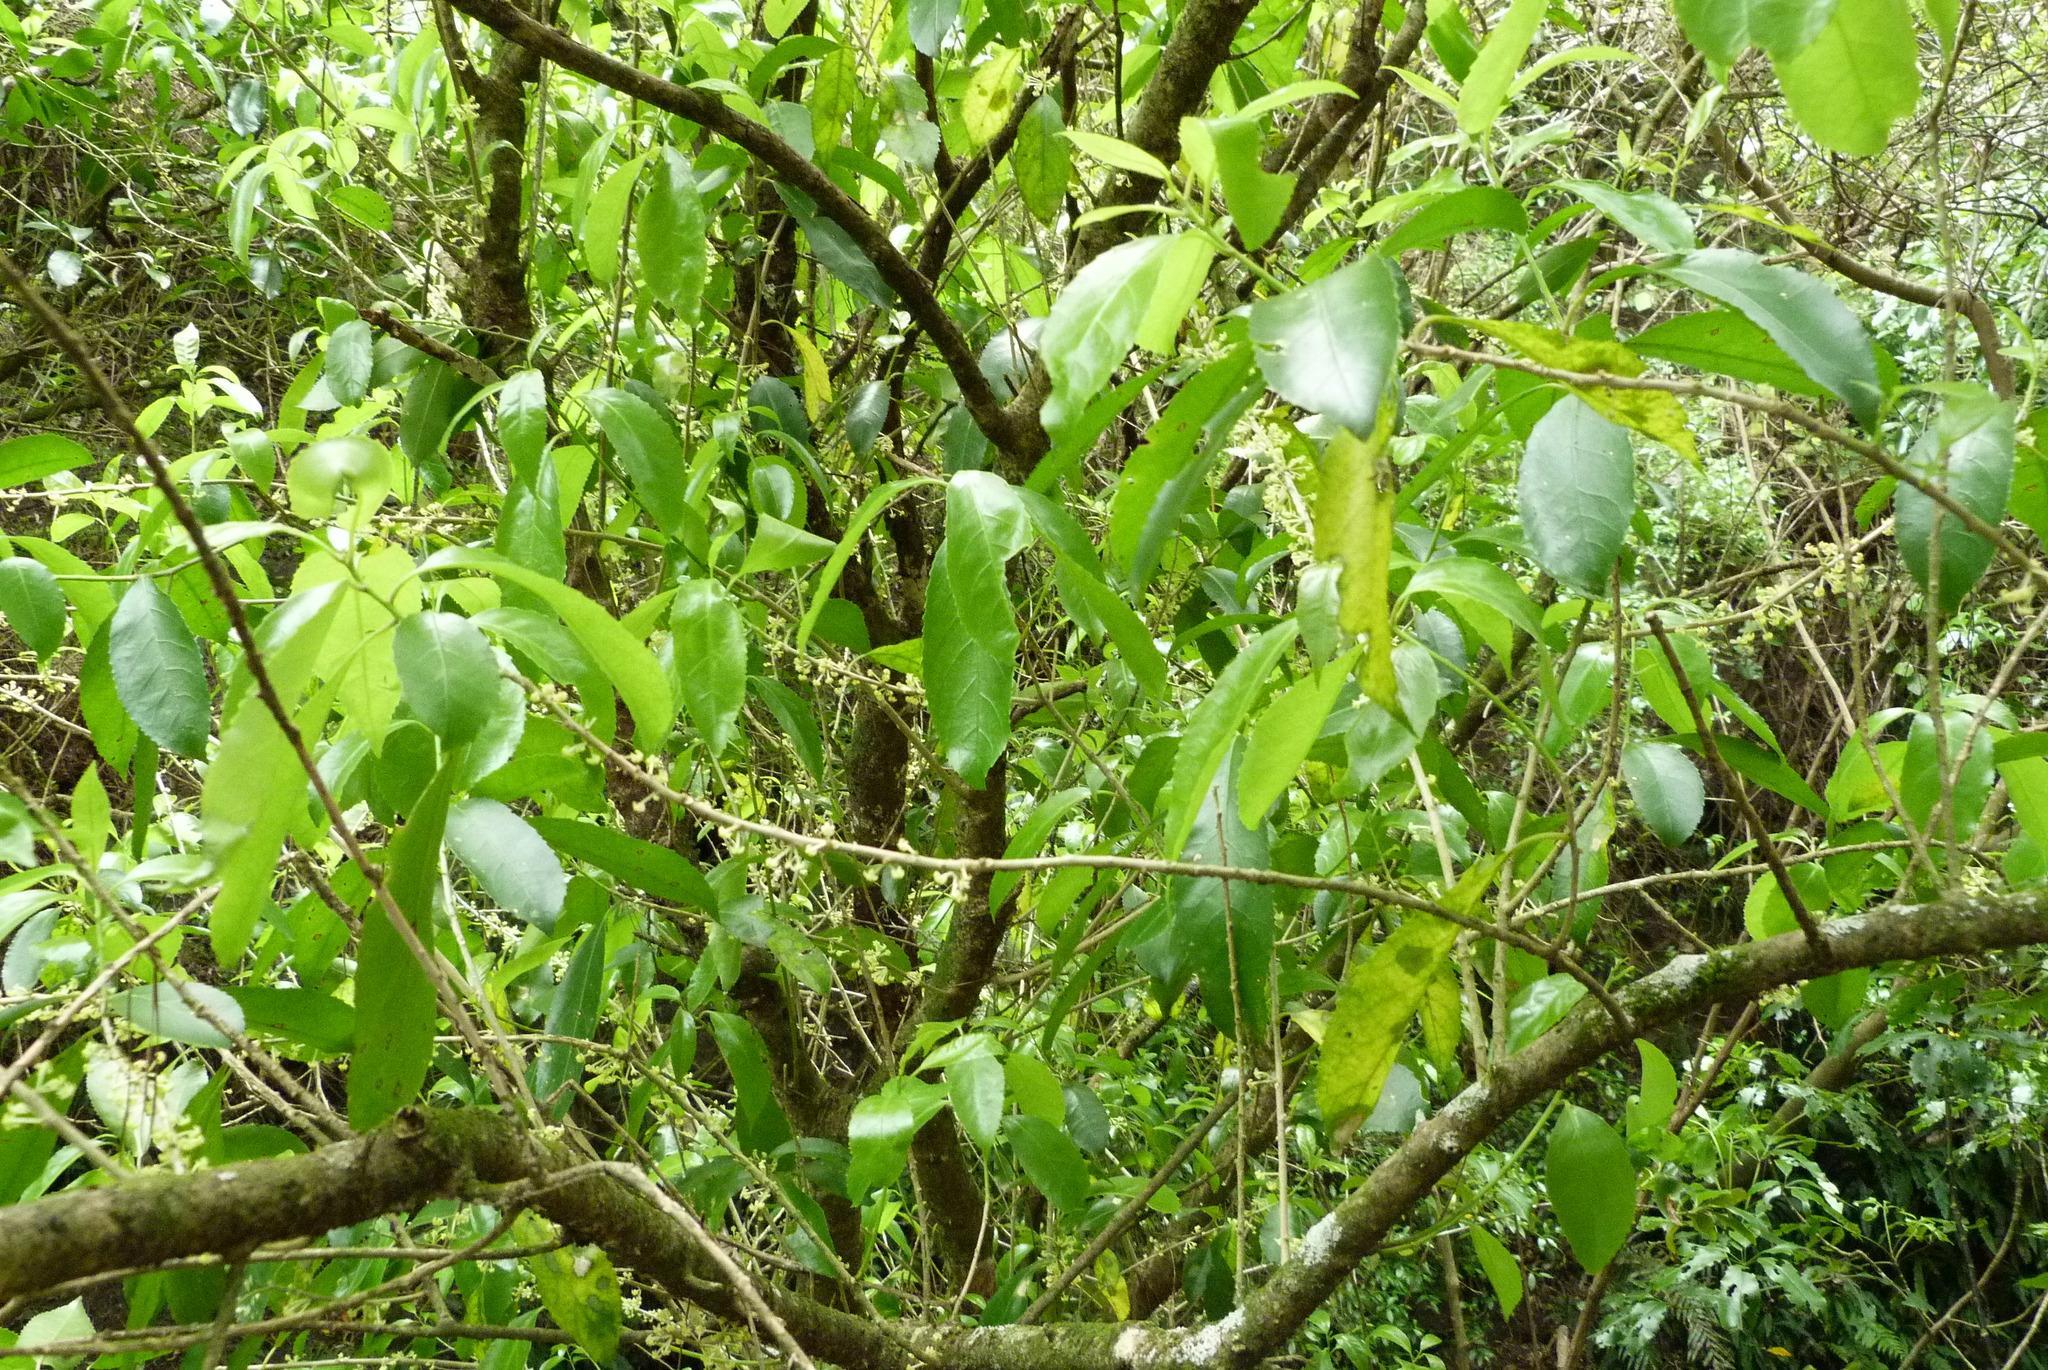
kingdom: Plantae
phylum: Tracheophyta
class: Magnoliopsida
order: Malpighiales
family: Violaceae
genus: Melicytus
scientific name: Melicytus ramiflorus
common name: Mahoe
